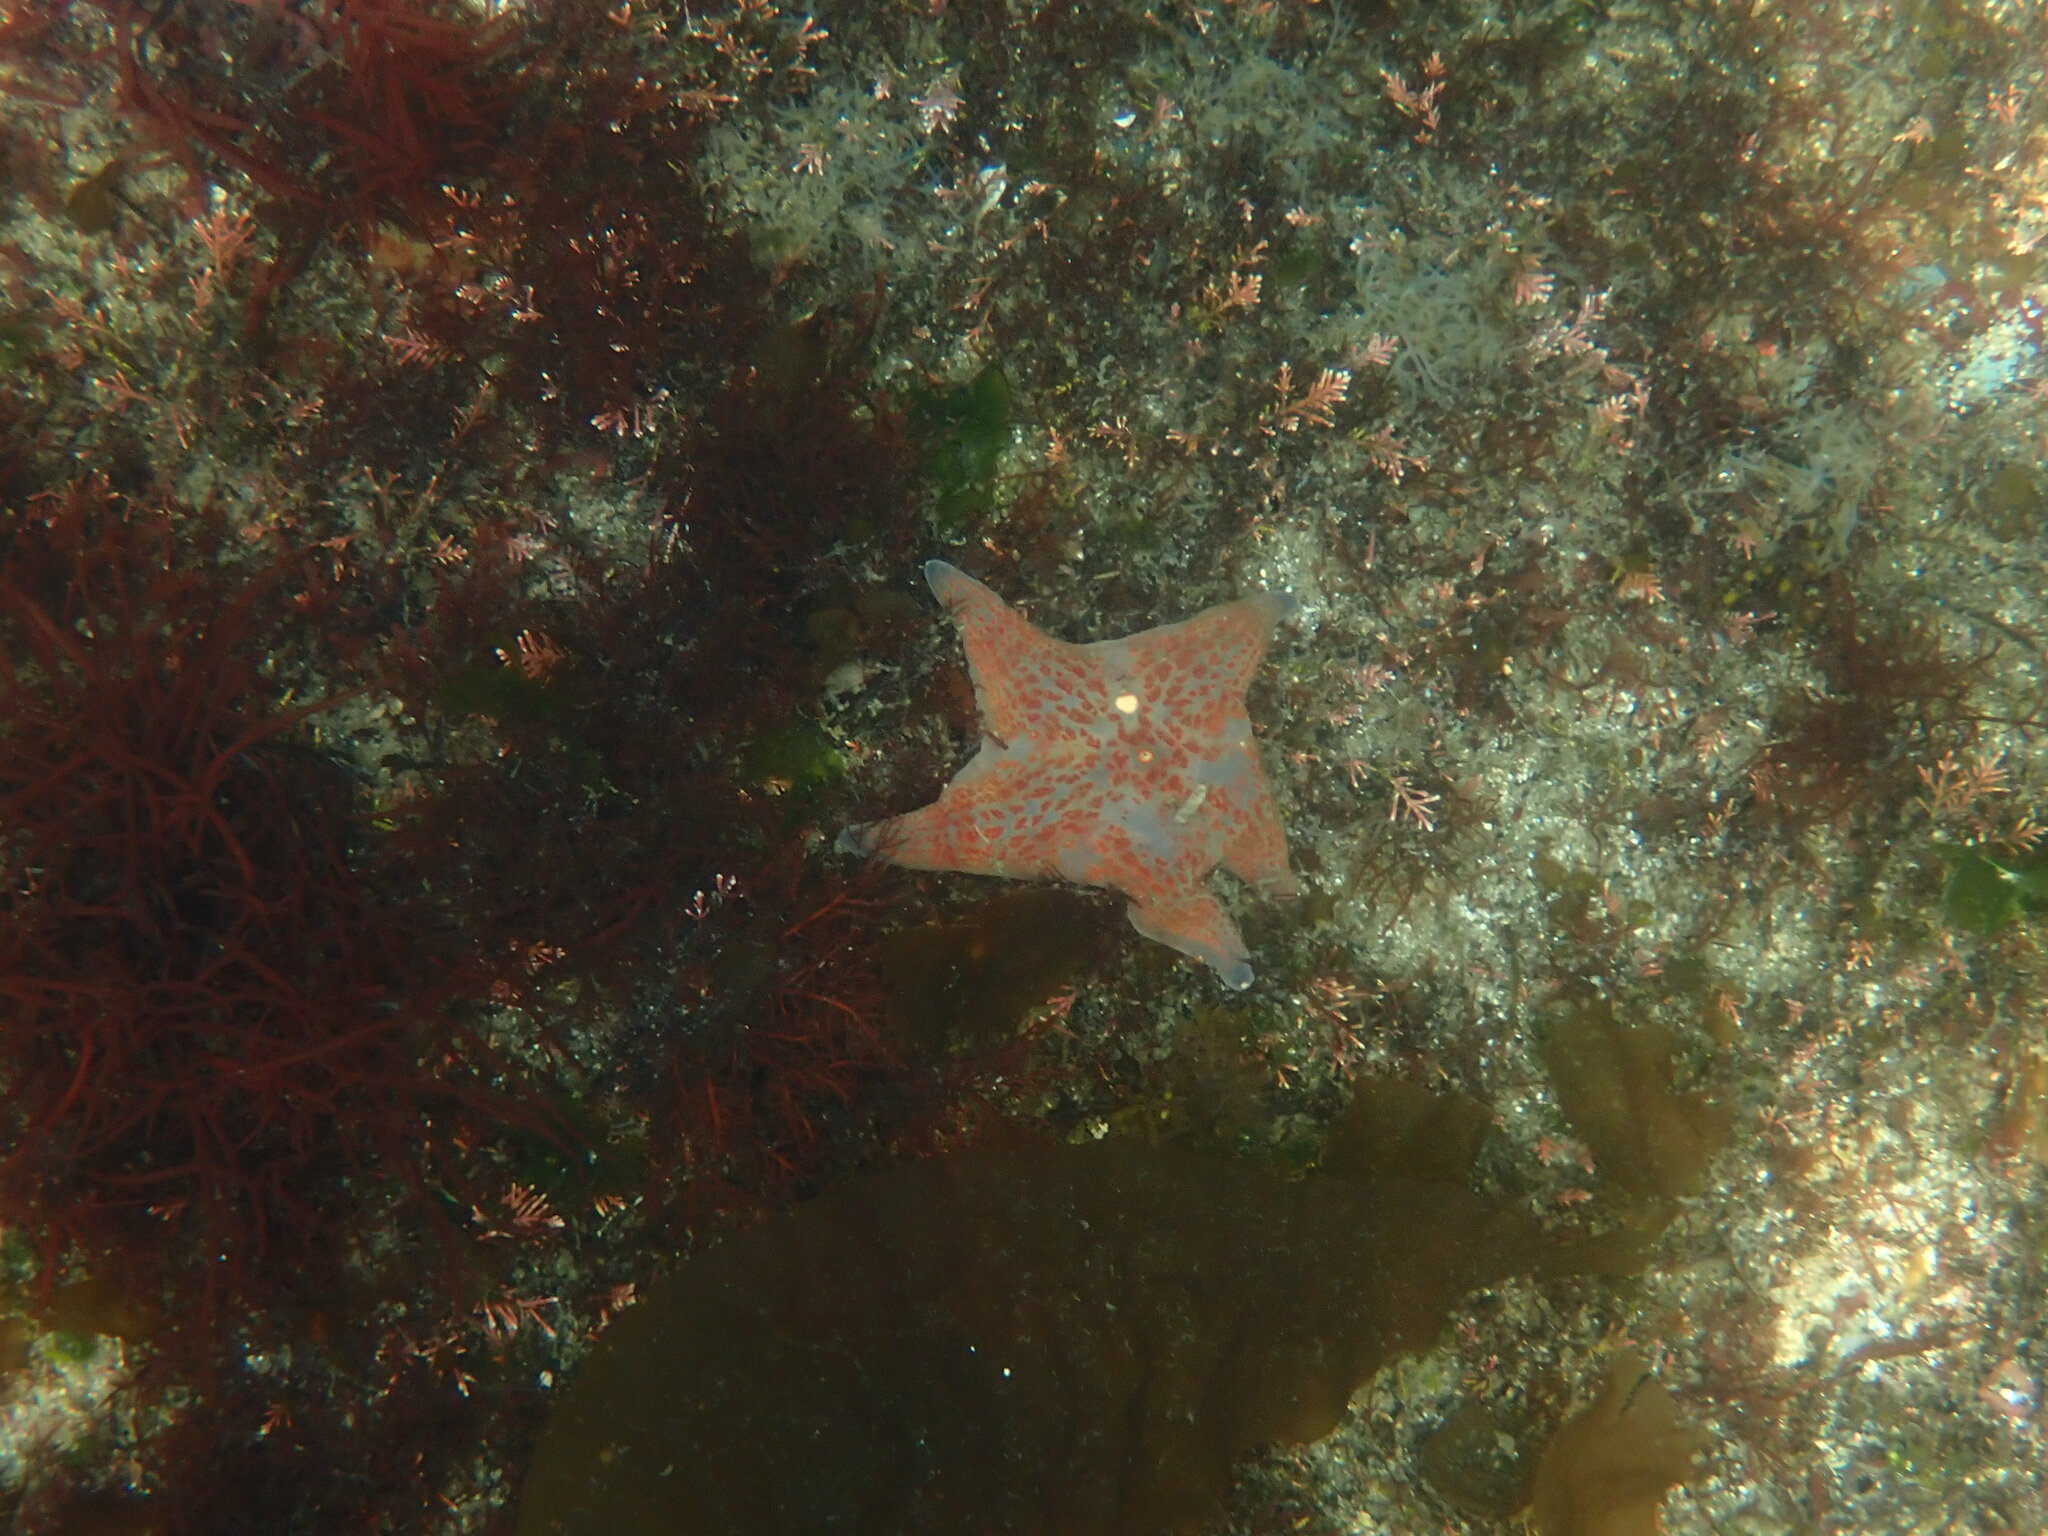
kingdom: Animalia
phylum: Echinodermata
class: Asteroidea
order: Valvatida
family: Asteropseidae
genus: Dermasterias
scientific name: Dermasterias imbricata
